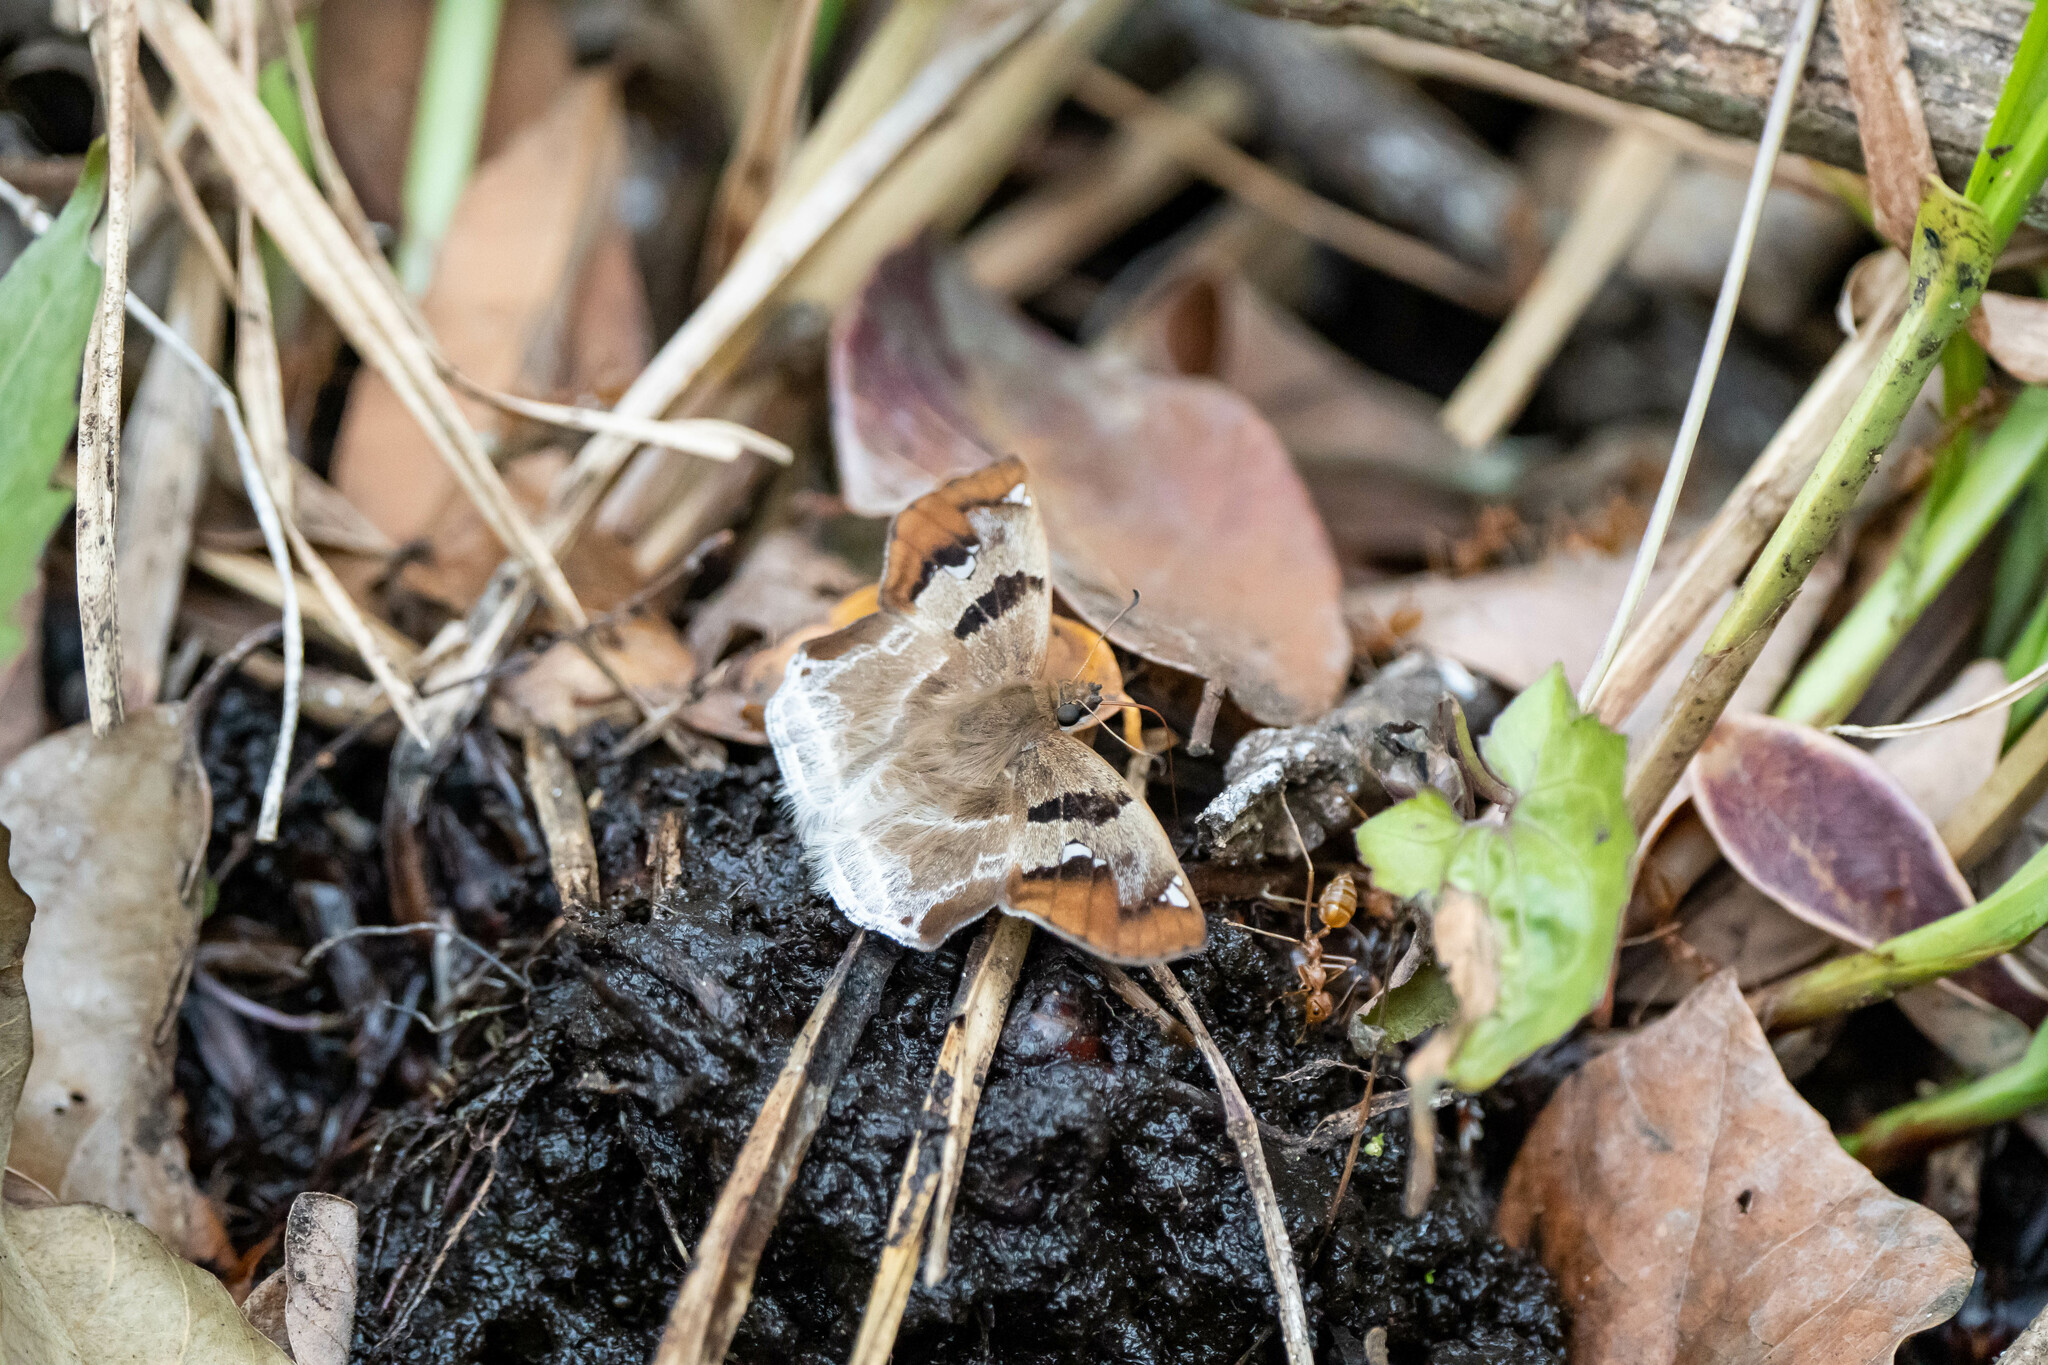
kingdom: Animalia
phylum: Arthropoda
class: Insecta
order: Lepidoptera
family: Hesperiidae
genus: Odontoptilum
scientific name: Odontoptilum angulata
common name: Chestnut banded angle
